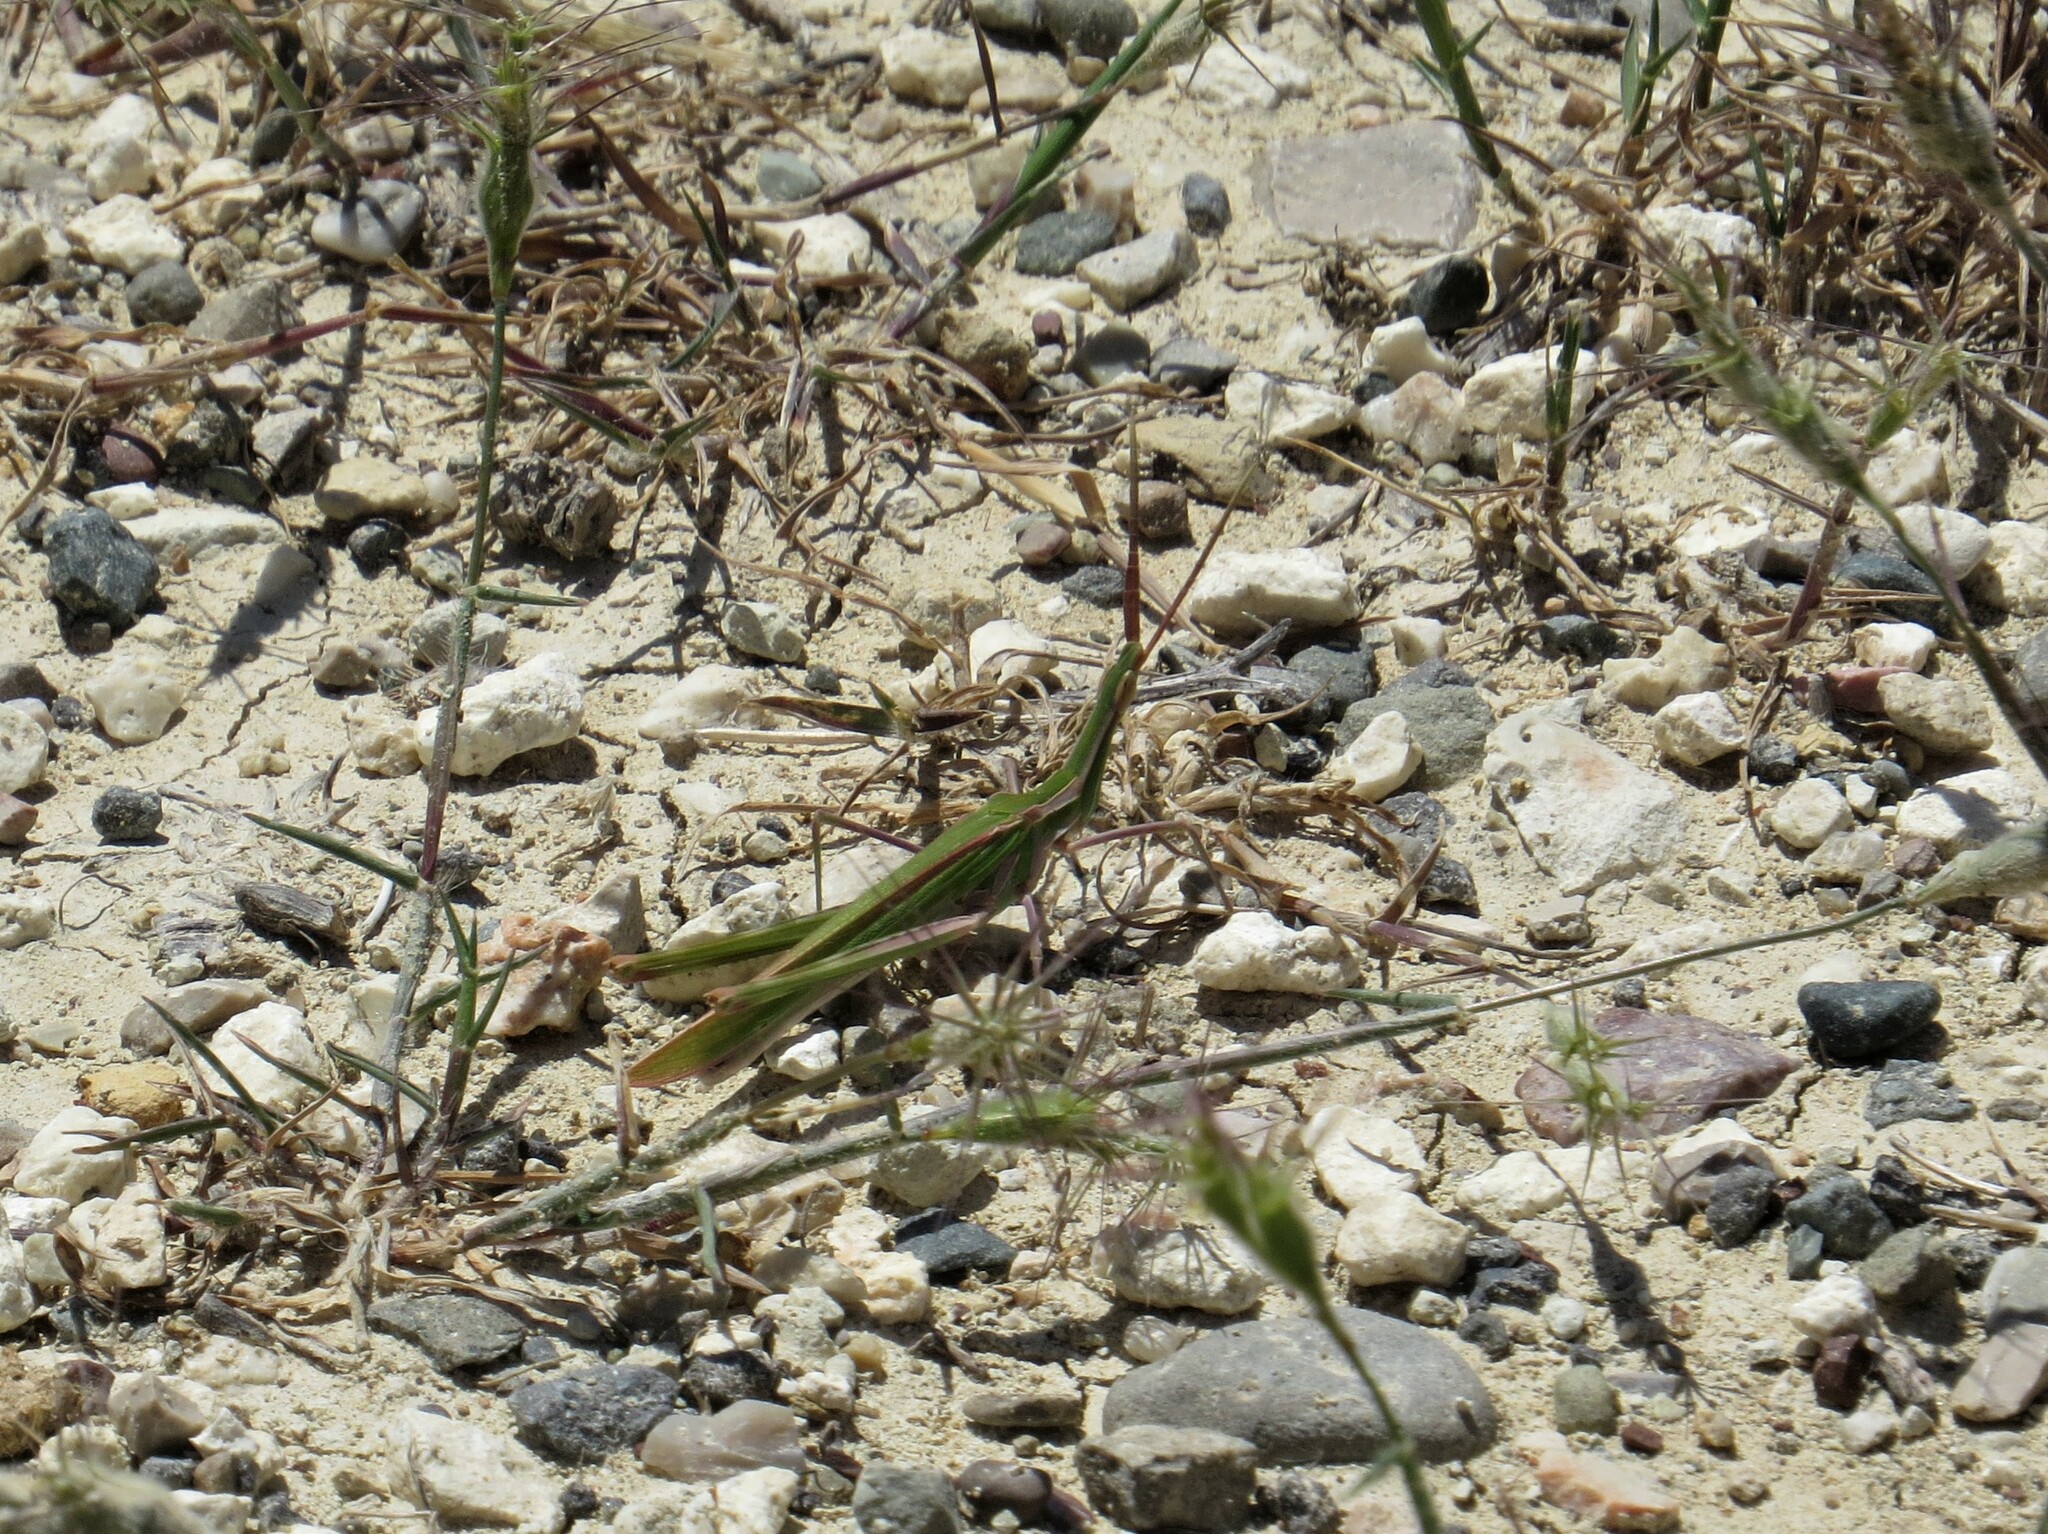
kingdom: Animalia
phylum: Arthropoda
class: Insecta
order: Orthoptera
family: Acrididae
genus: Truxalis
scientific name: Truxalis eximia
